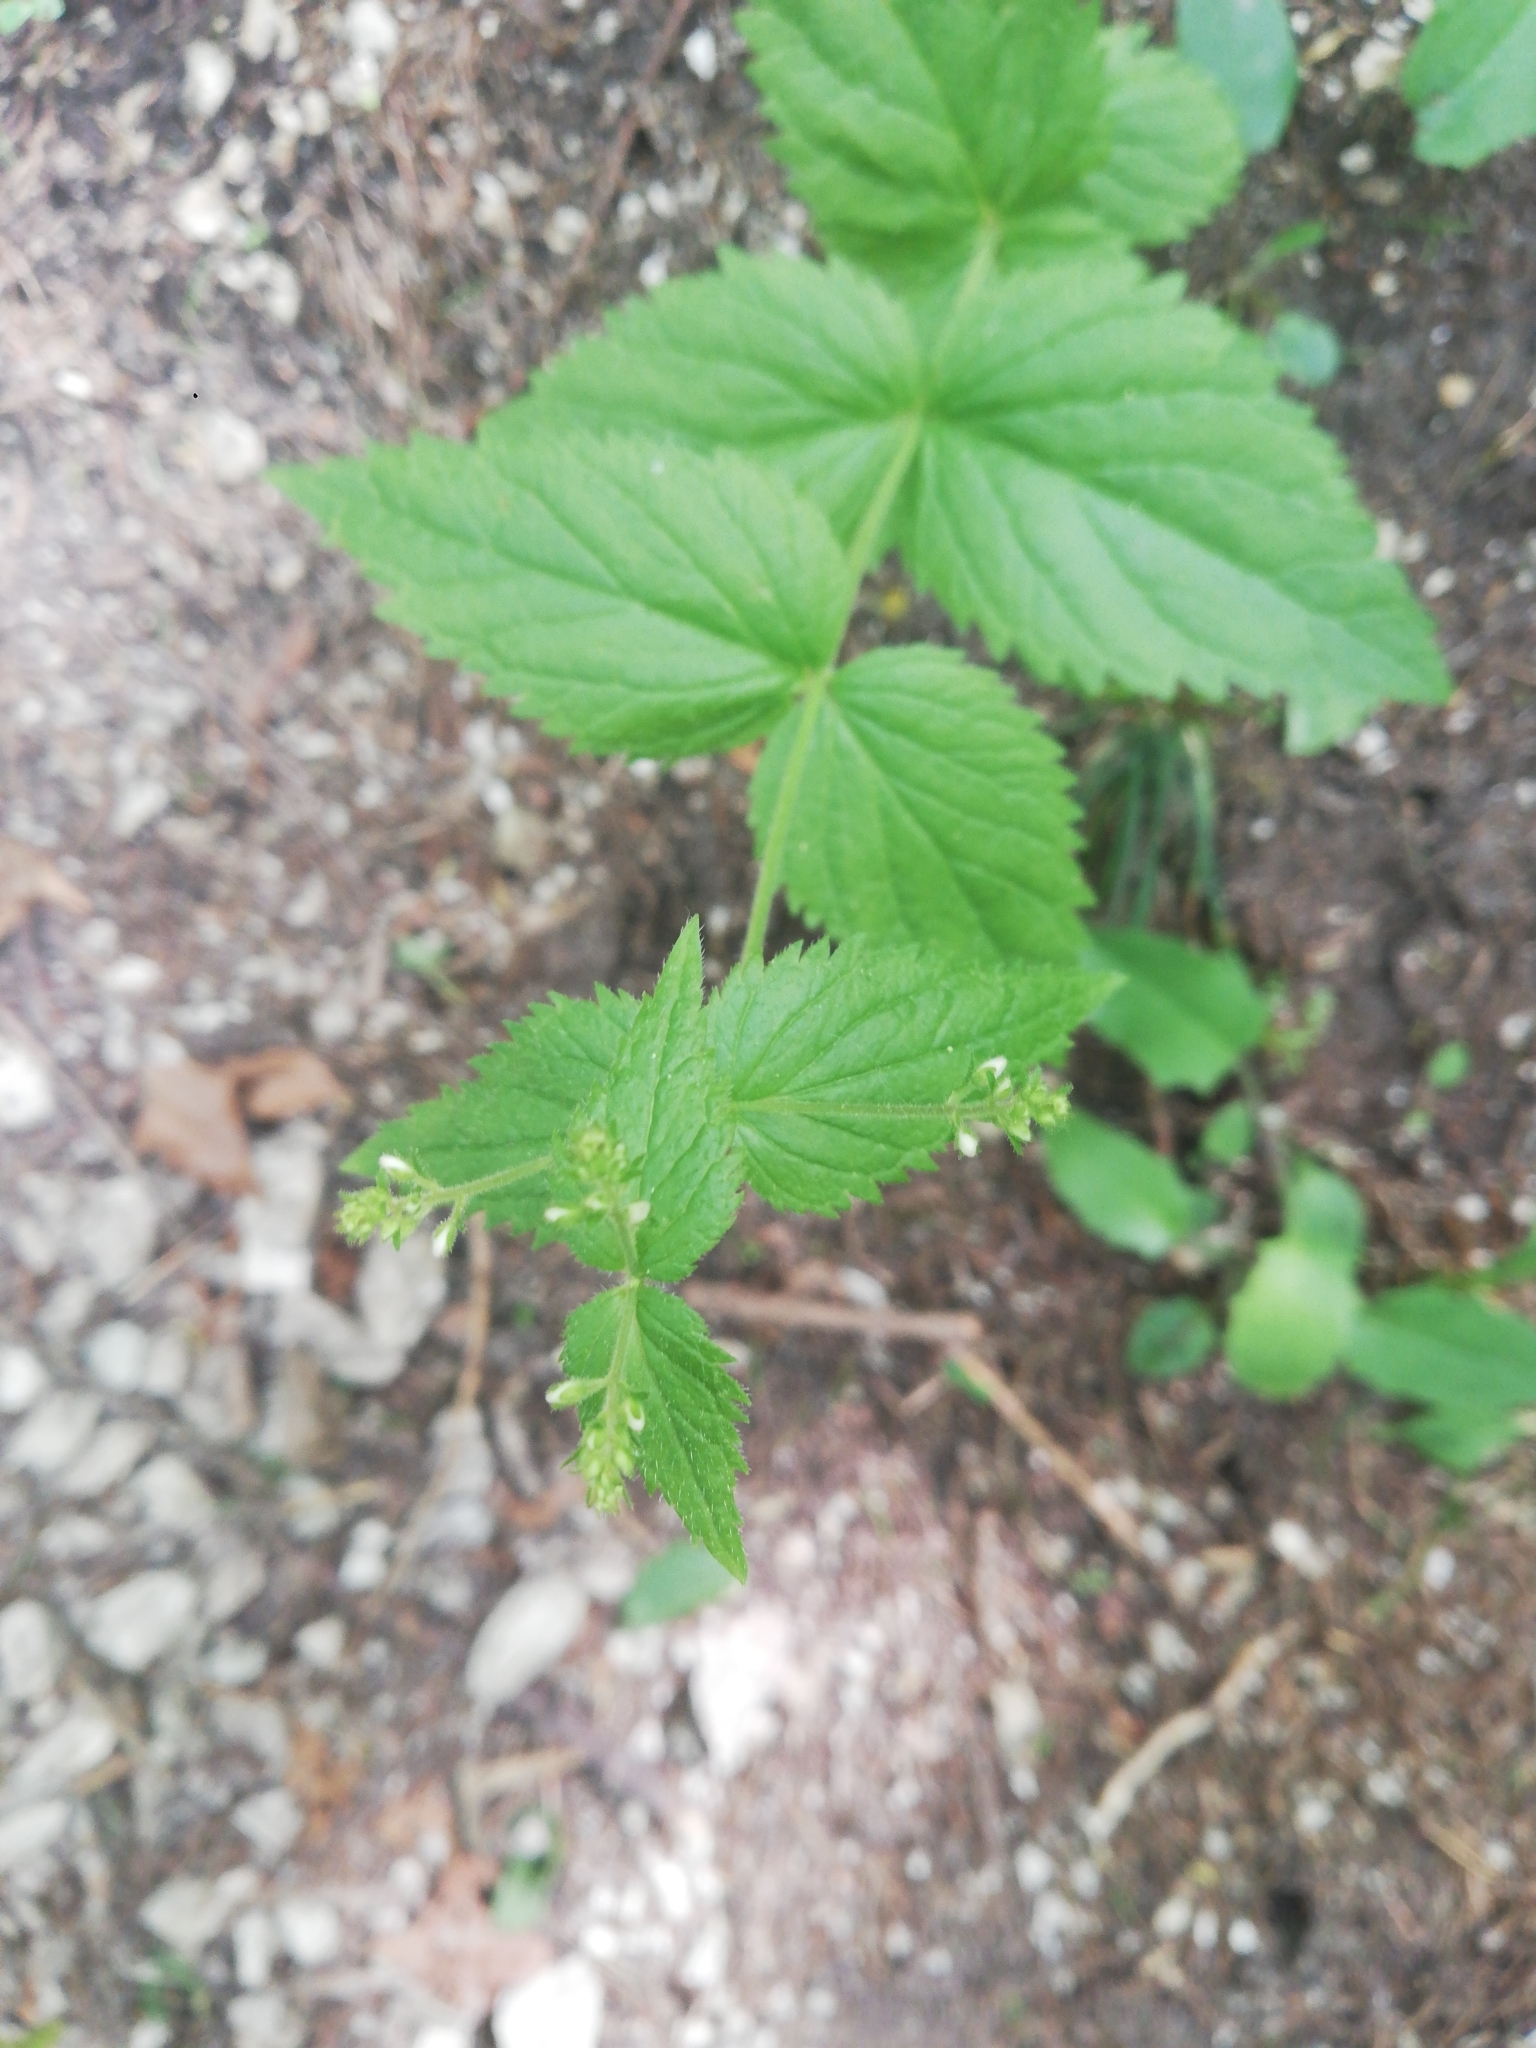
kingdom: Plantae
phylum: Tracheophyta
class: Magnoliopsida
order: Lamiales
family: Plantaginaceae
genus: Veronica
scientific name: Veronica urticifolia
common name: Nettle-leaf speedwell
